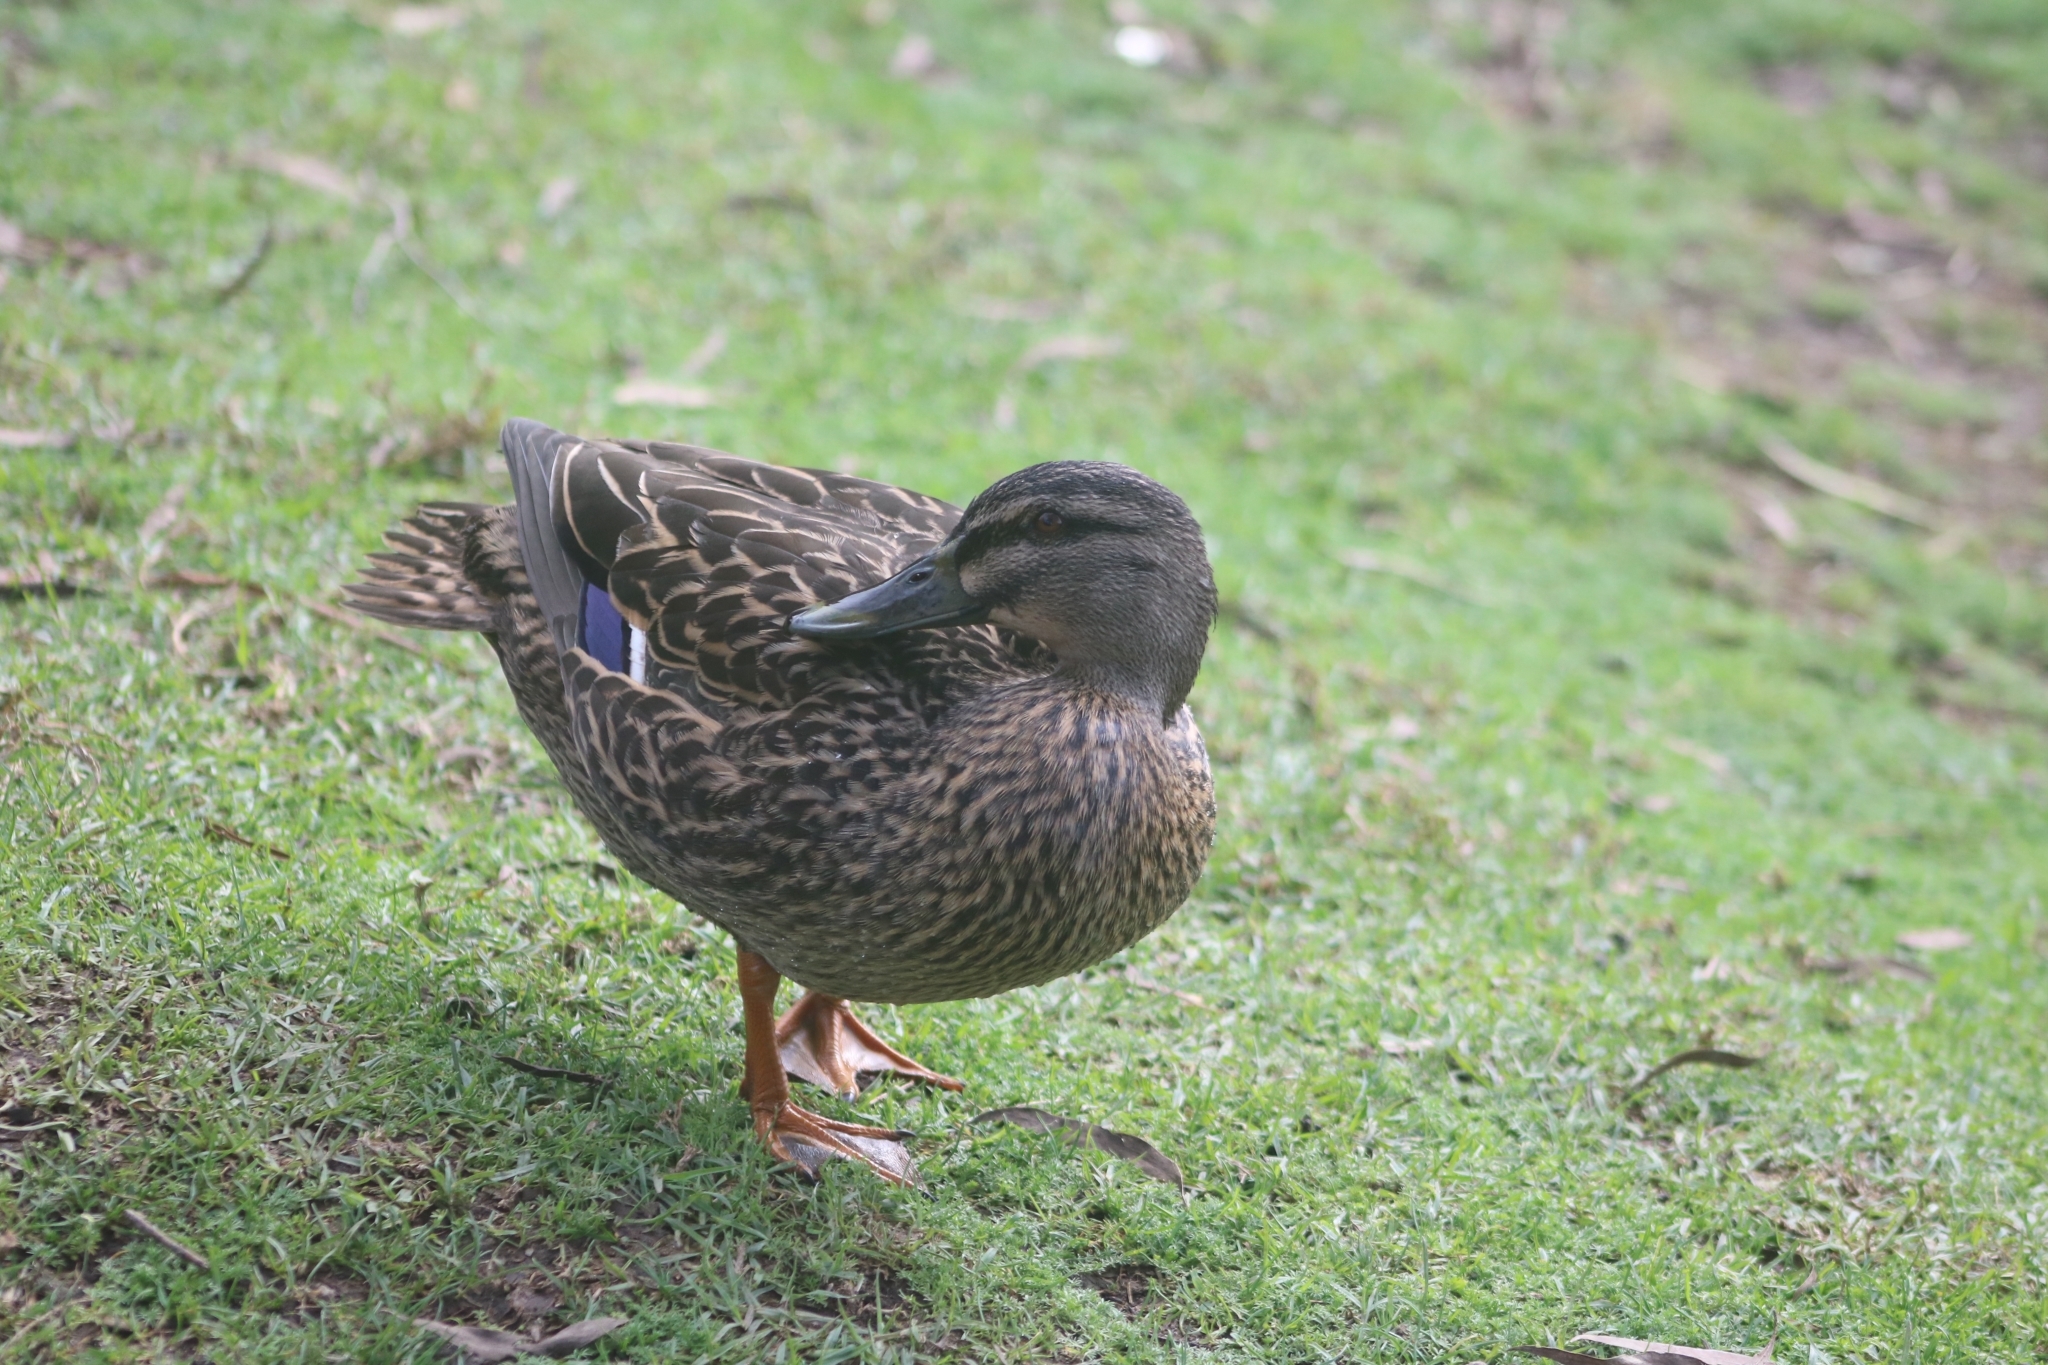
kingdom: Animalia
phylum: Chordata
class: Aves
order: Anseriformes
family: Anatidae
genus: Anas
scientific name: Anas
